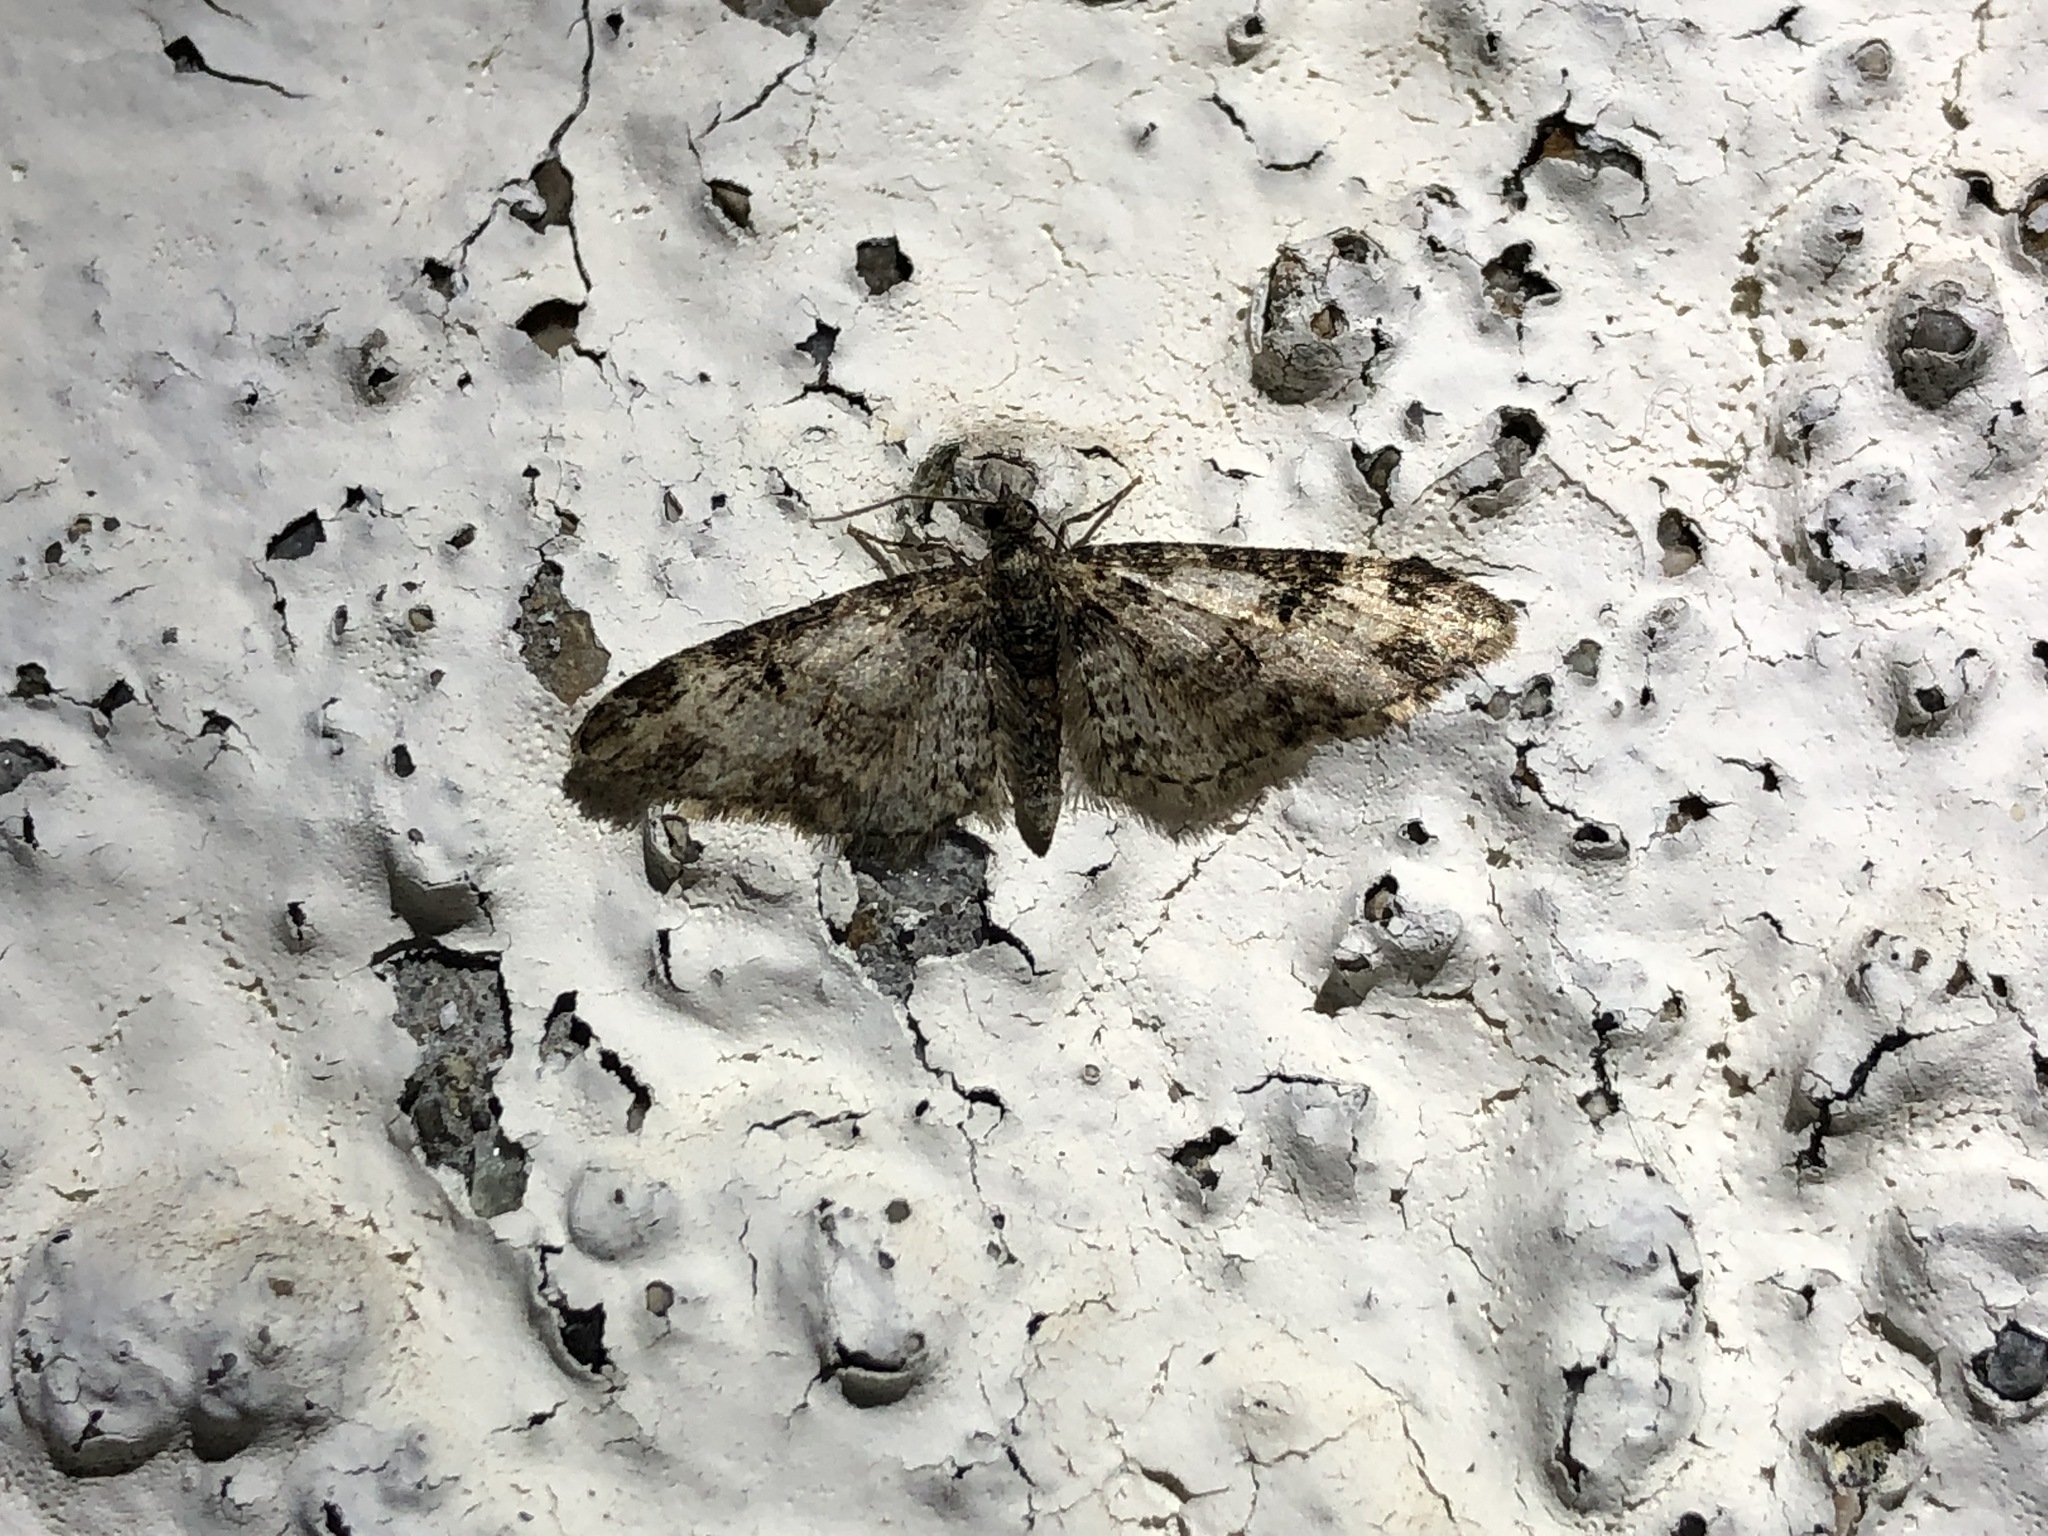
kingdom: Animalia
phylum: Arthropoda
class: Insecta
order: Lepidoptera
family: Geometridae
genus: Eupithecia
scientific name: Eupithecia irriguata
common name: Marbled pug
